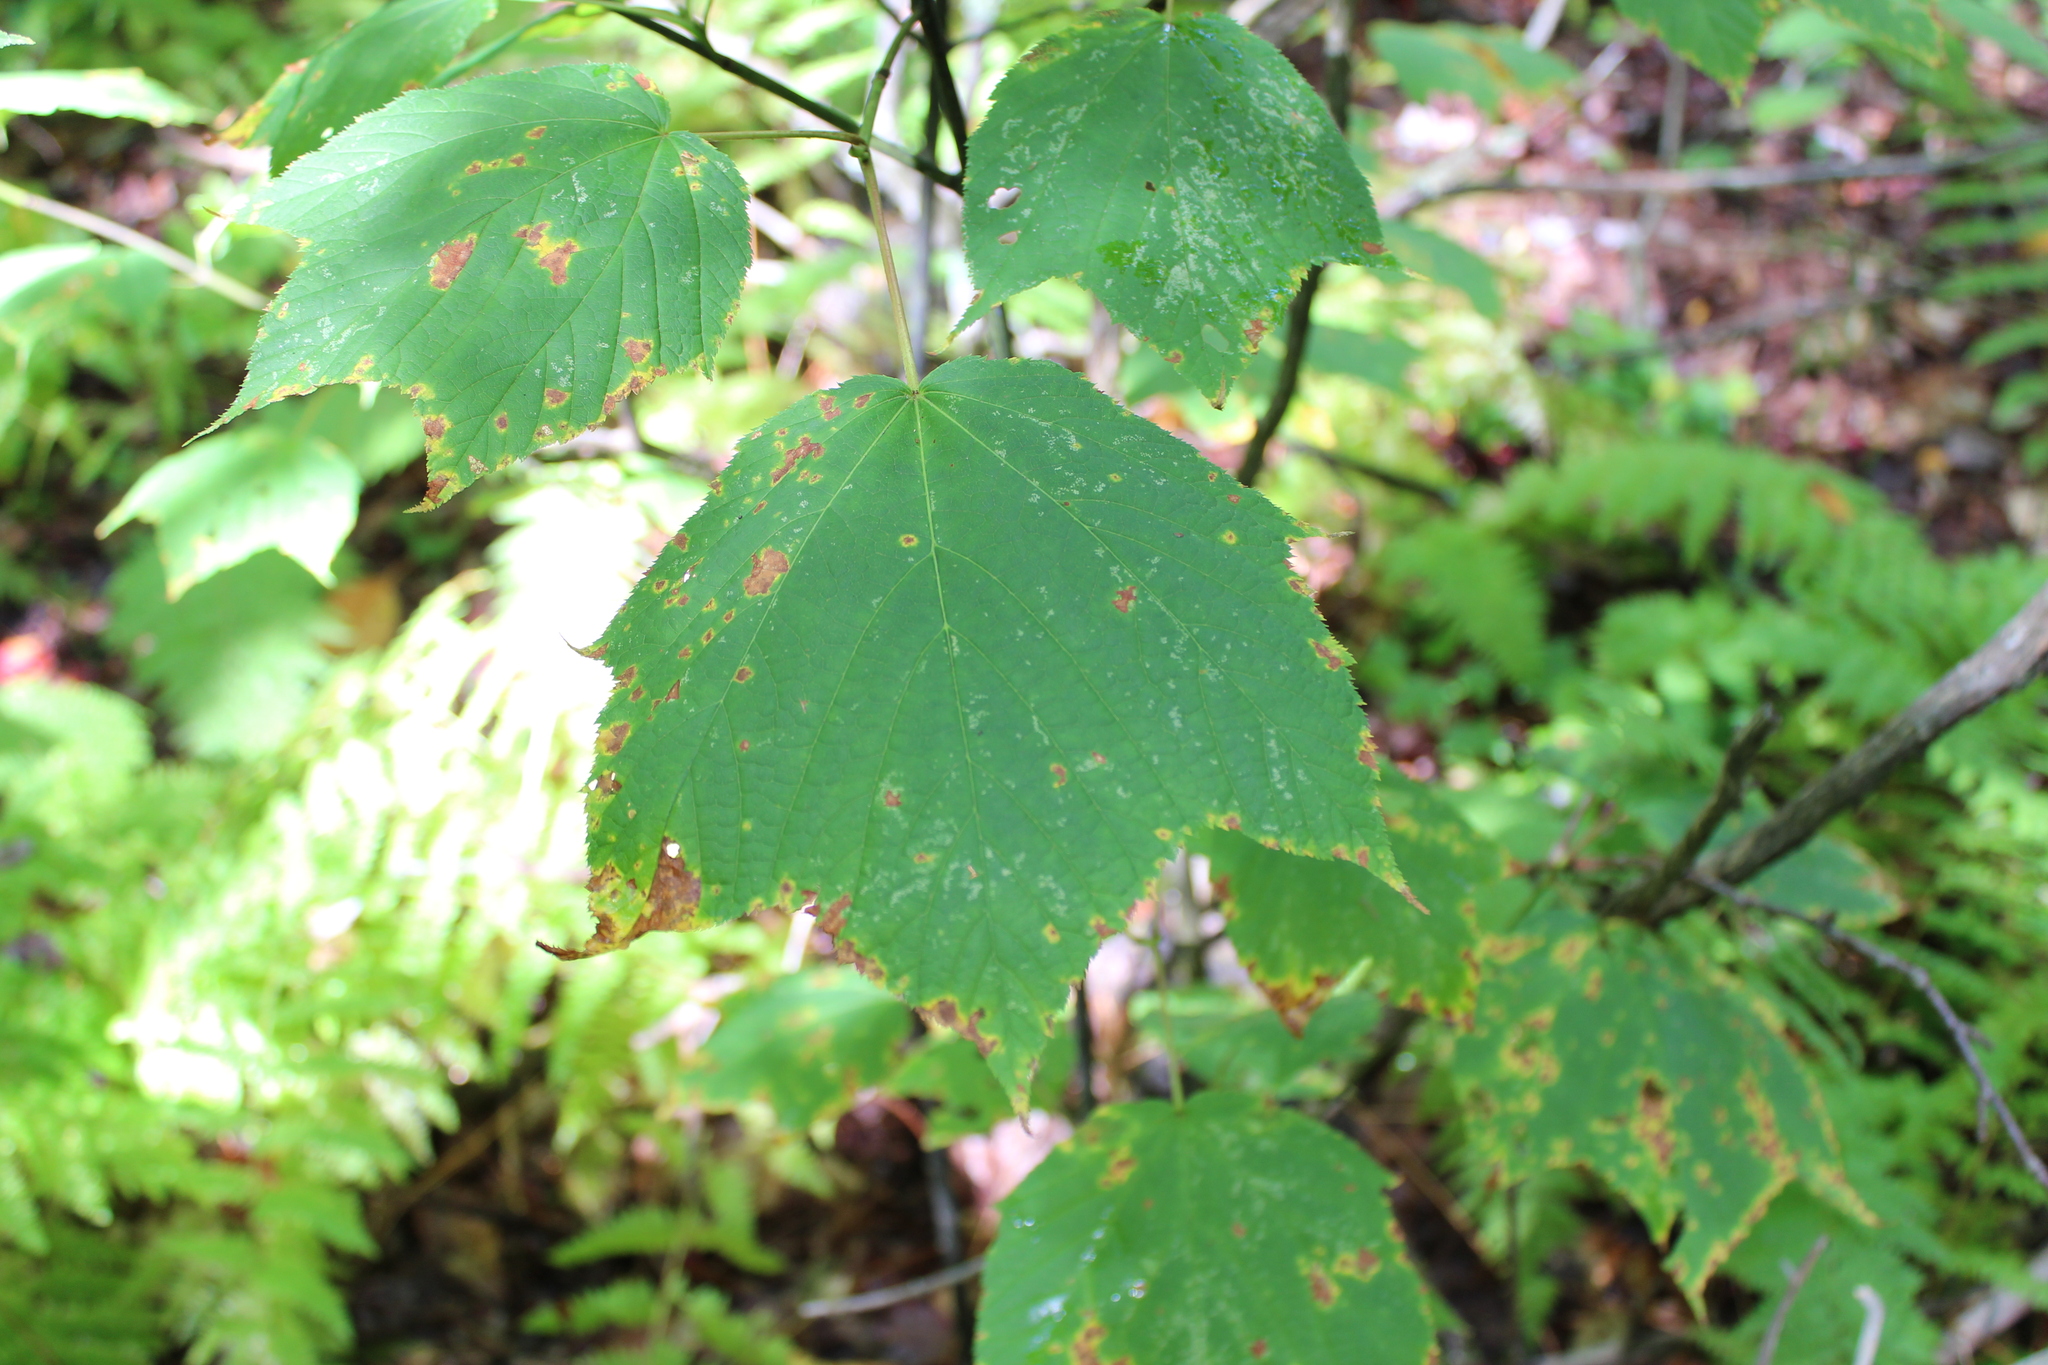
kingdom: Plantae
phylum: Tracheophyta
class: Magnoliopsida
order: Sapindales
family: Sapindaceae
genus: Acer
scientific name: Acer pensylvanicum
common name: Moosewood
